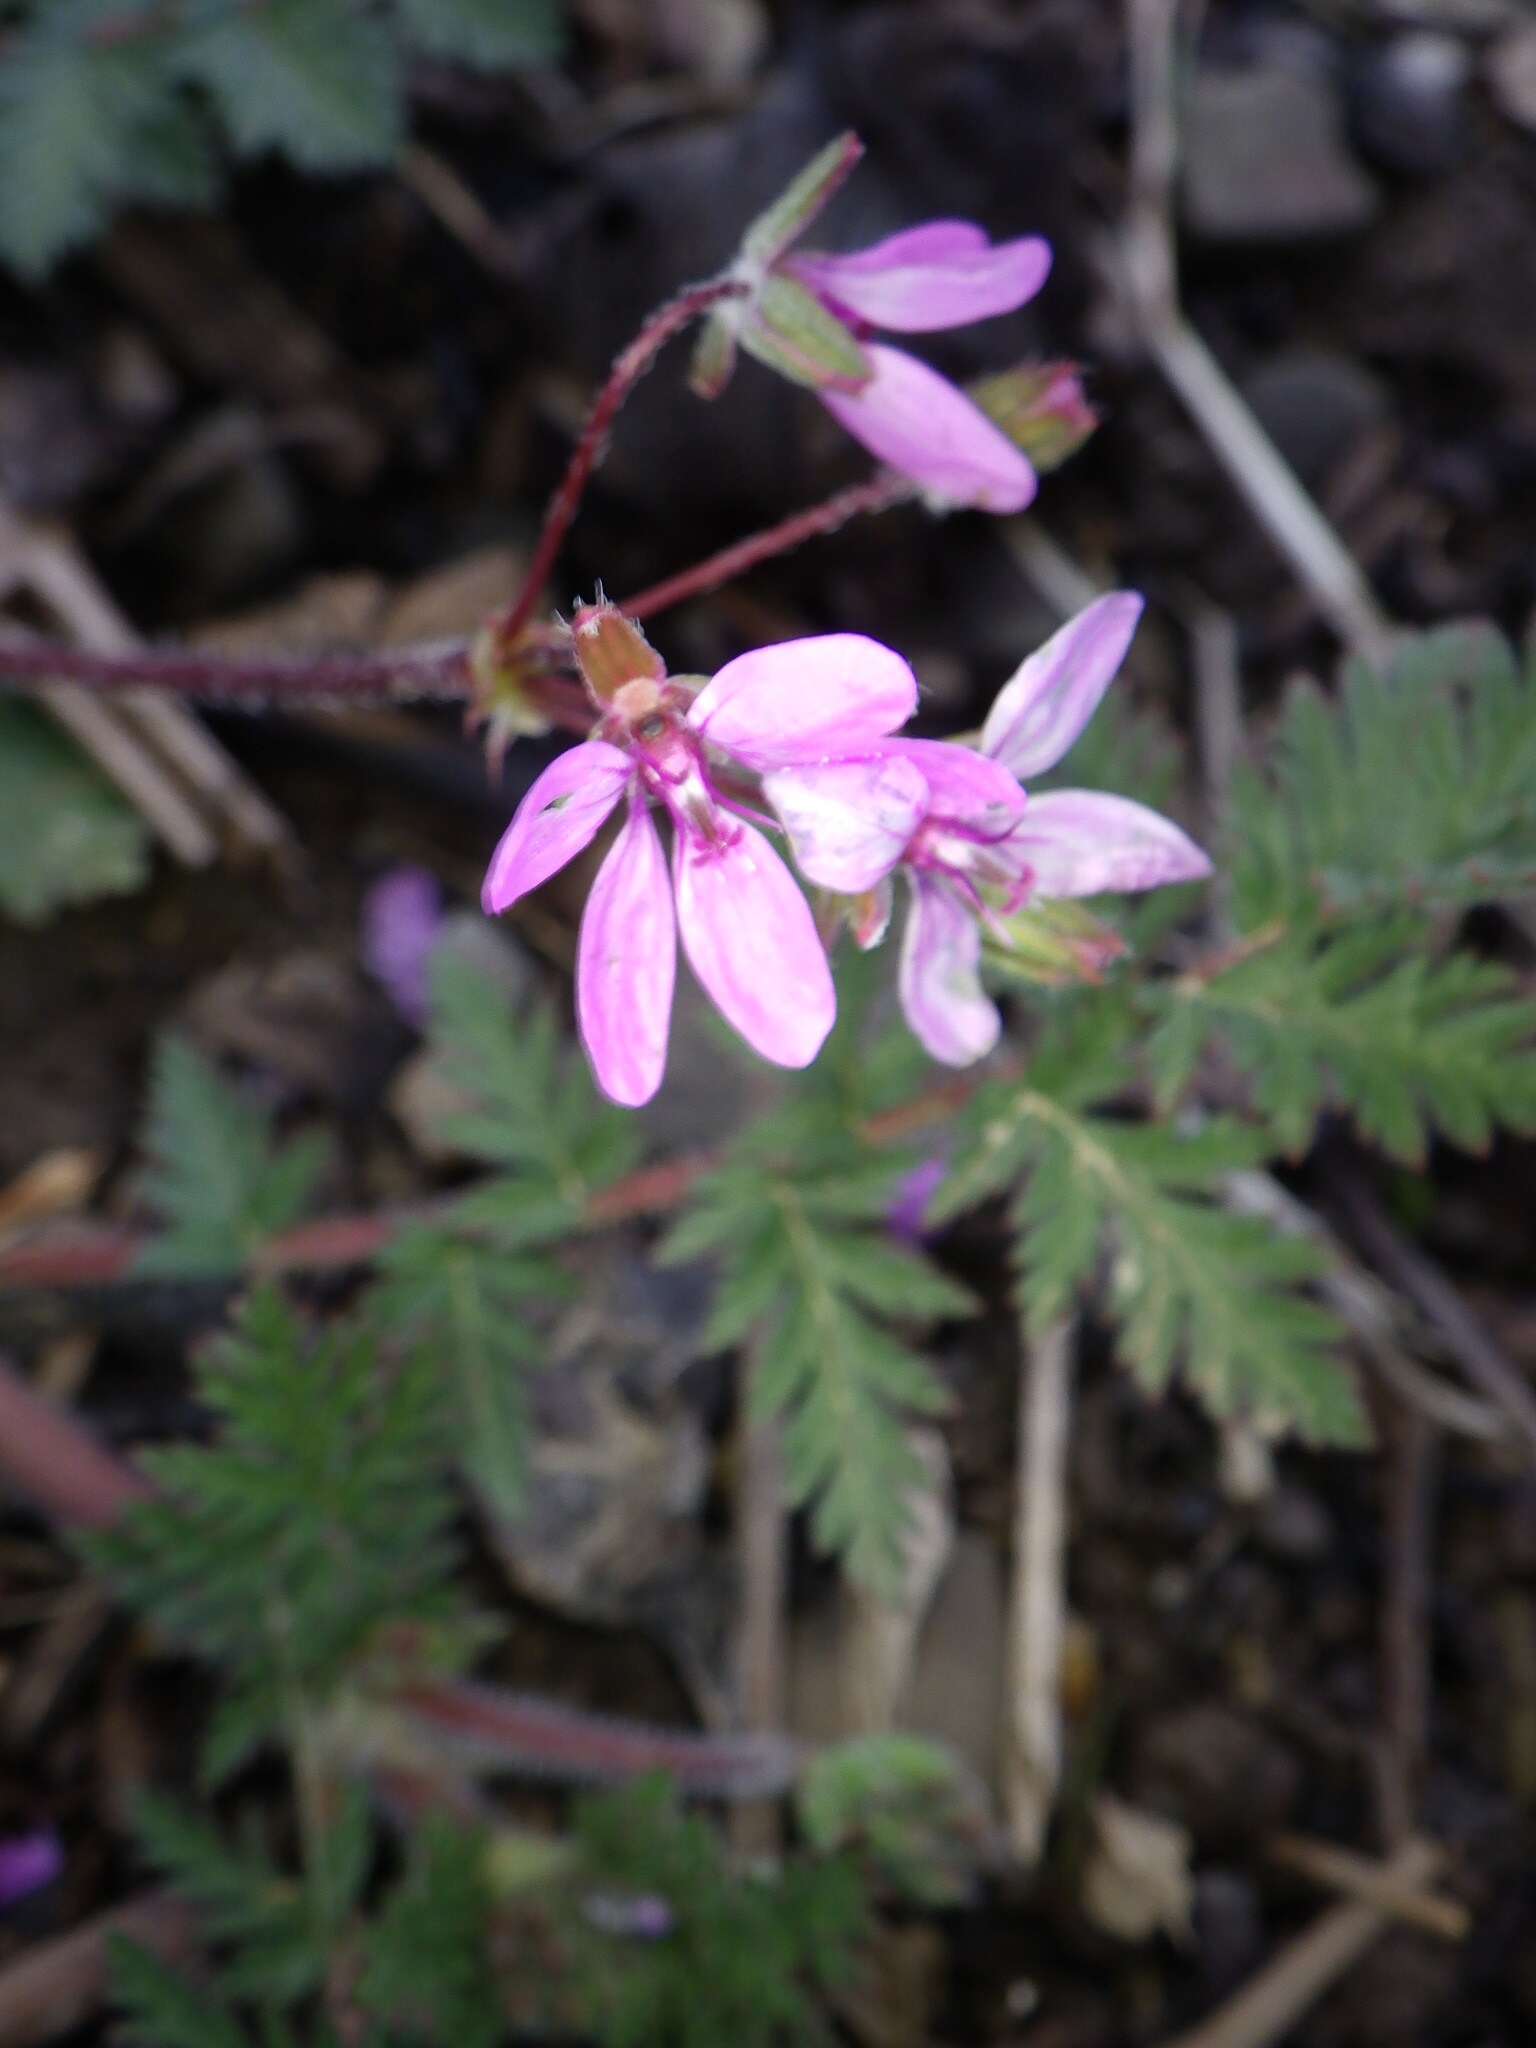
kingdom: Plantae
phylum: Tracheophyta
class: Magnoliopsida
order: Geraniales
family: Geraniaceae
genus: Erodium
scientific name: Erodium cicutarium
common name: Common stork's-bill
